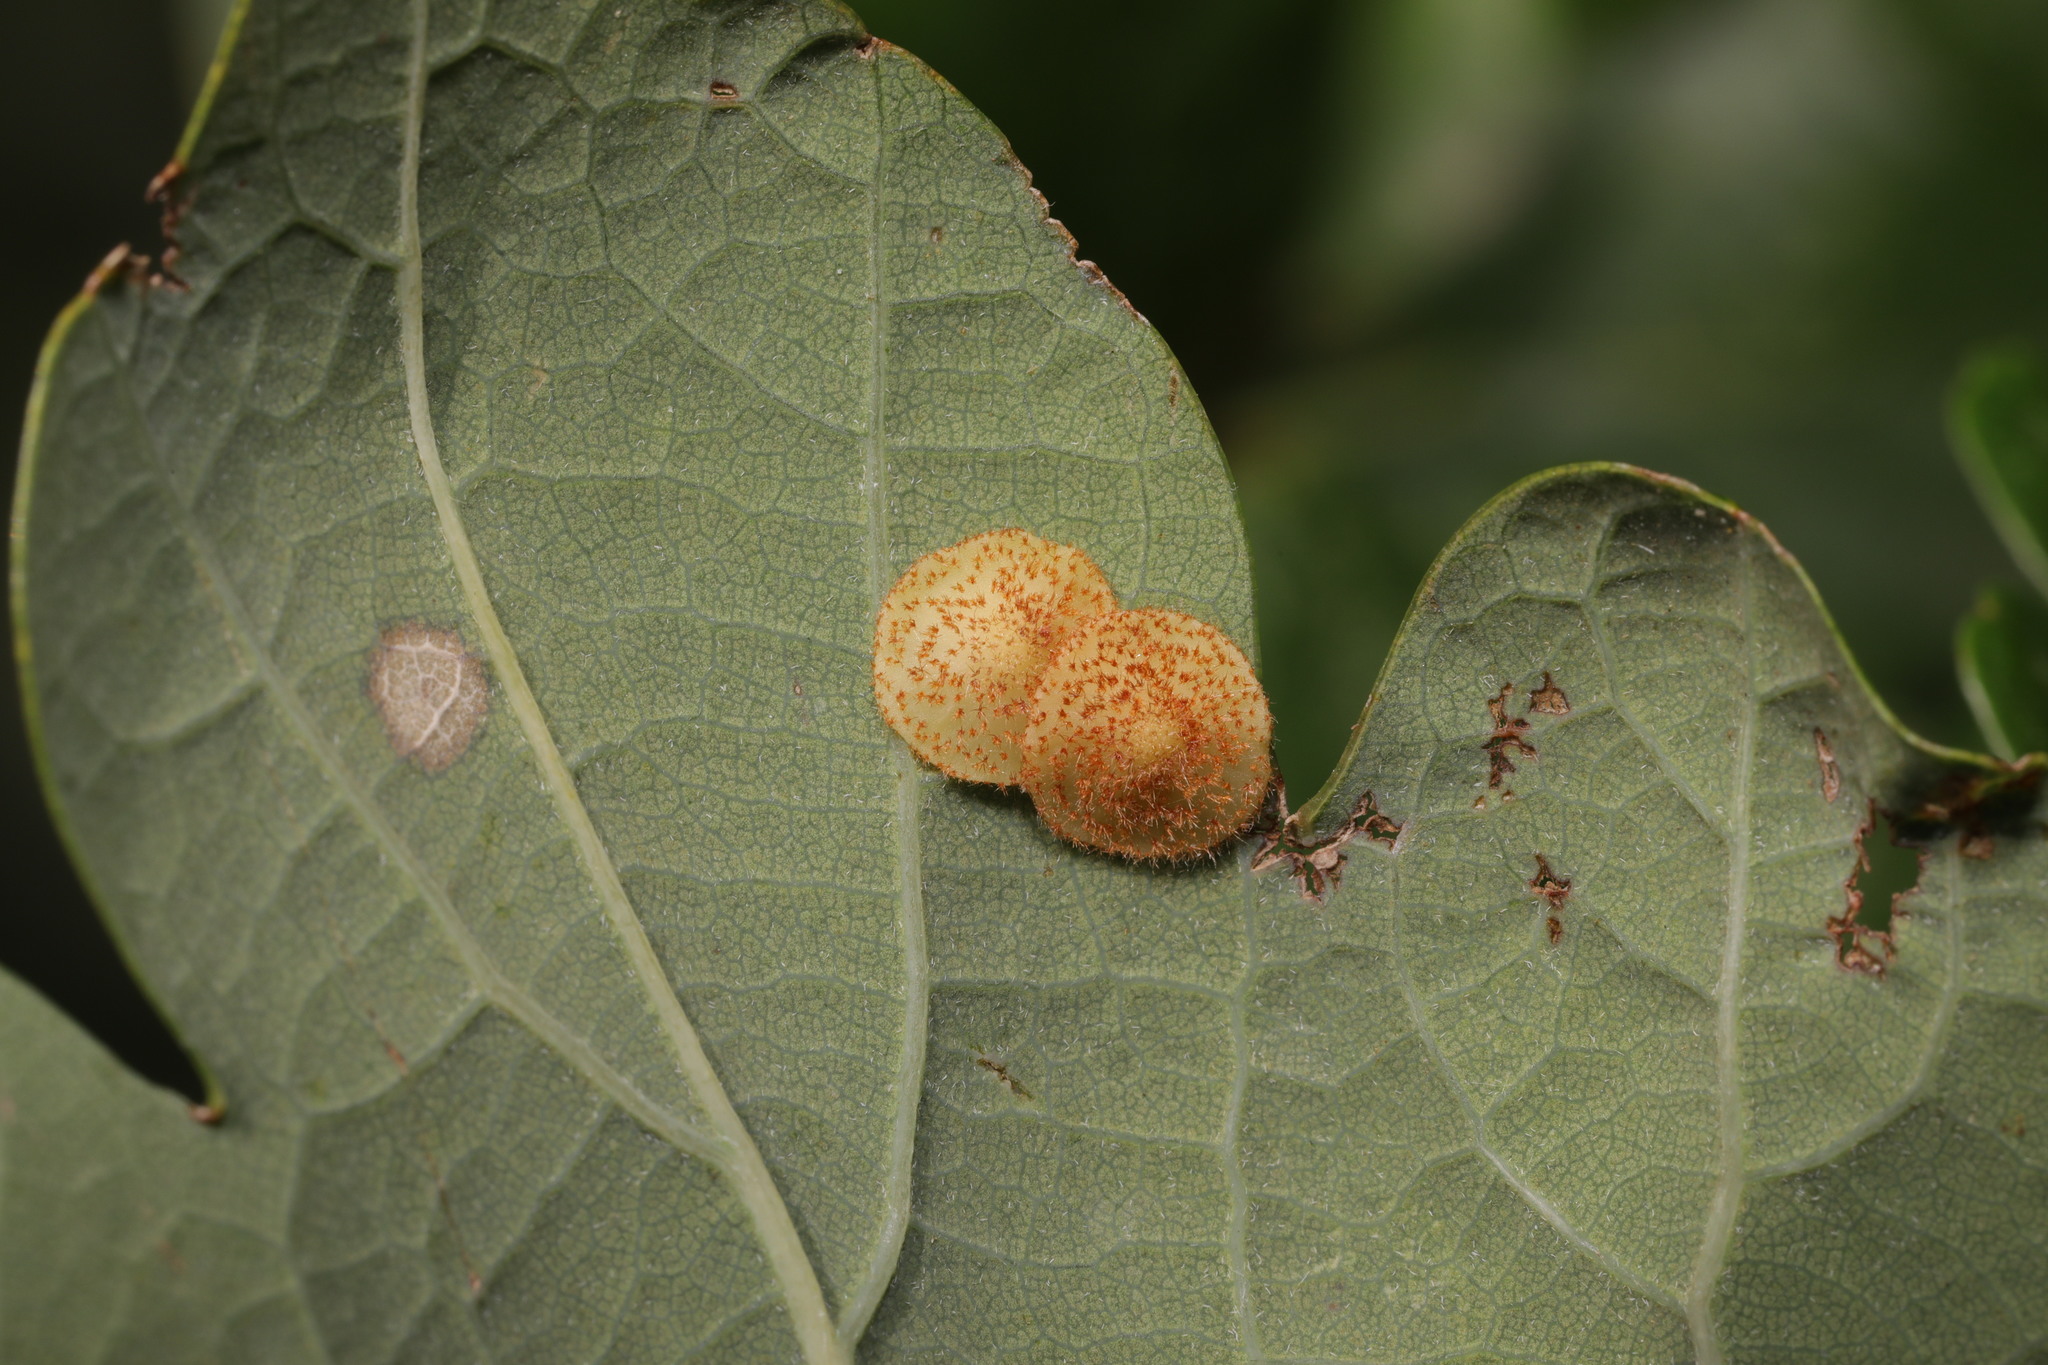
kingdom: Animalia
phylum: Arthropoda
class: Insecta
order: Hymenoptera
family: Cynipidae
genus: Neuroterus
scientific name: Neuroterus quercusbaccarum
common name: Common spangle gall
